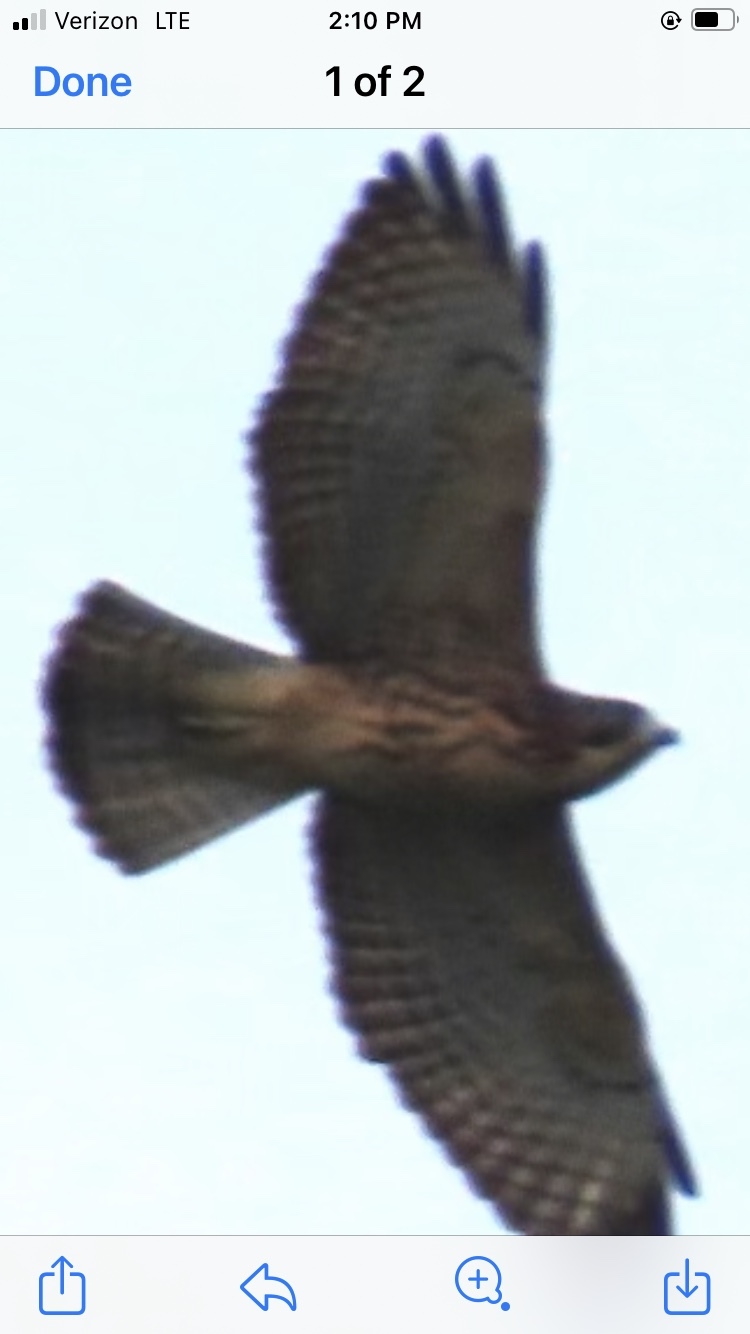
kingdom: Animalia
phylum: Chordata
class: Aves
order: Accipitriformes
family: Accipitridae
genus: Buteo
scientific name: Buteo platypterus
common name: Broad-winged hawk
